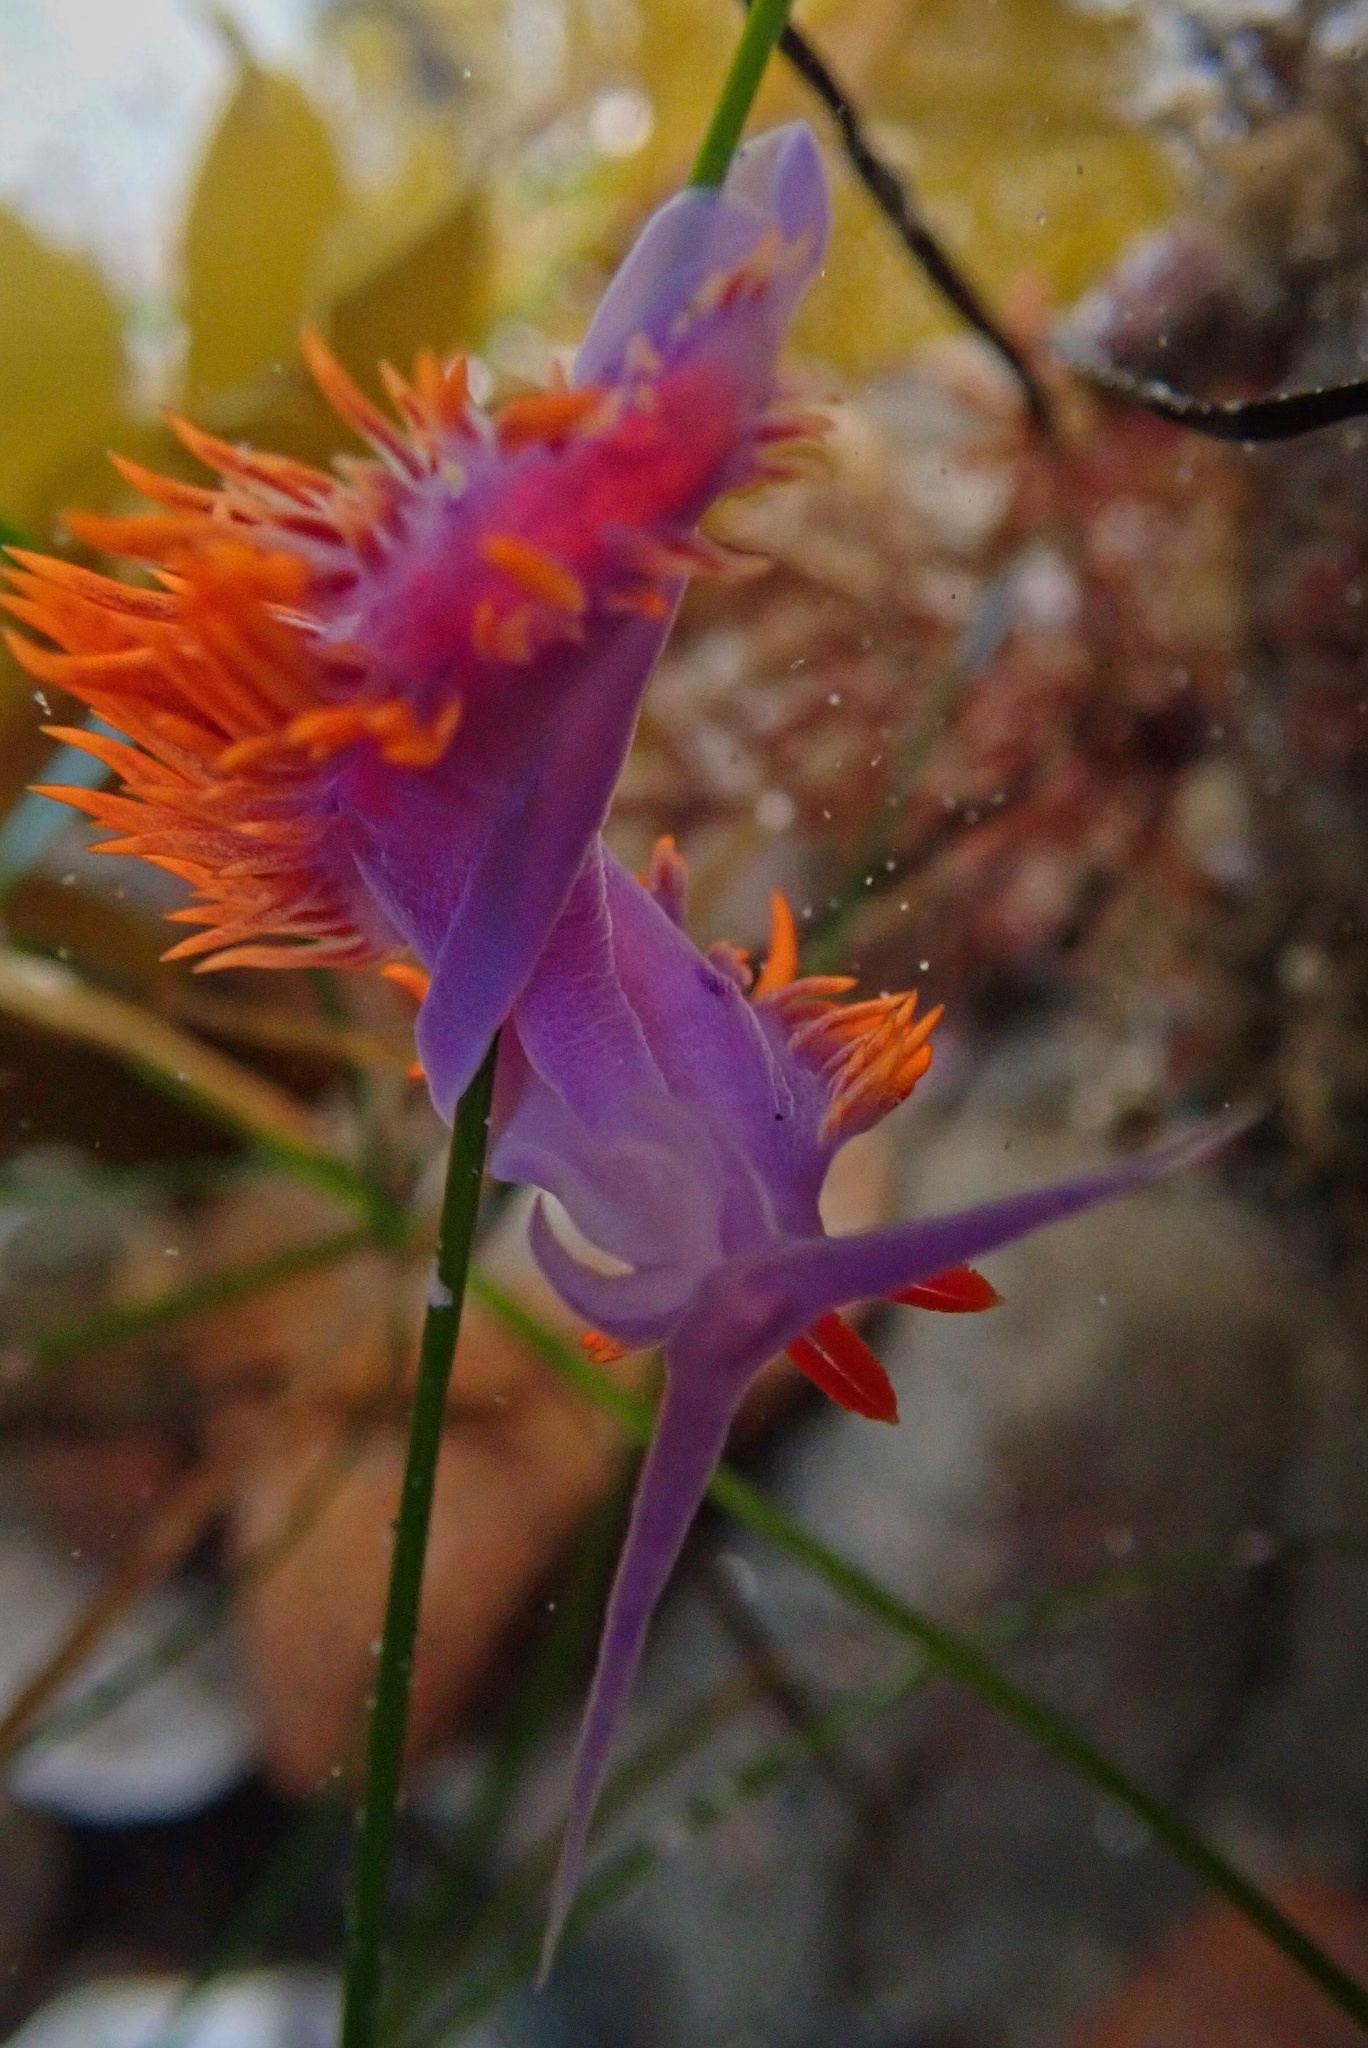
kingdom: Animalia
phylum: Mollusca
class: Gastropoda
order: Nudibranchia
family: Flabellinopsidae
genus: Flabellinopsis
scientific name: Flabellinopsis iodinea
